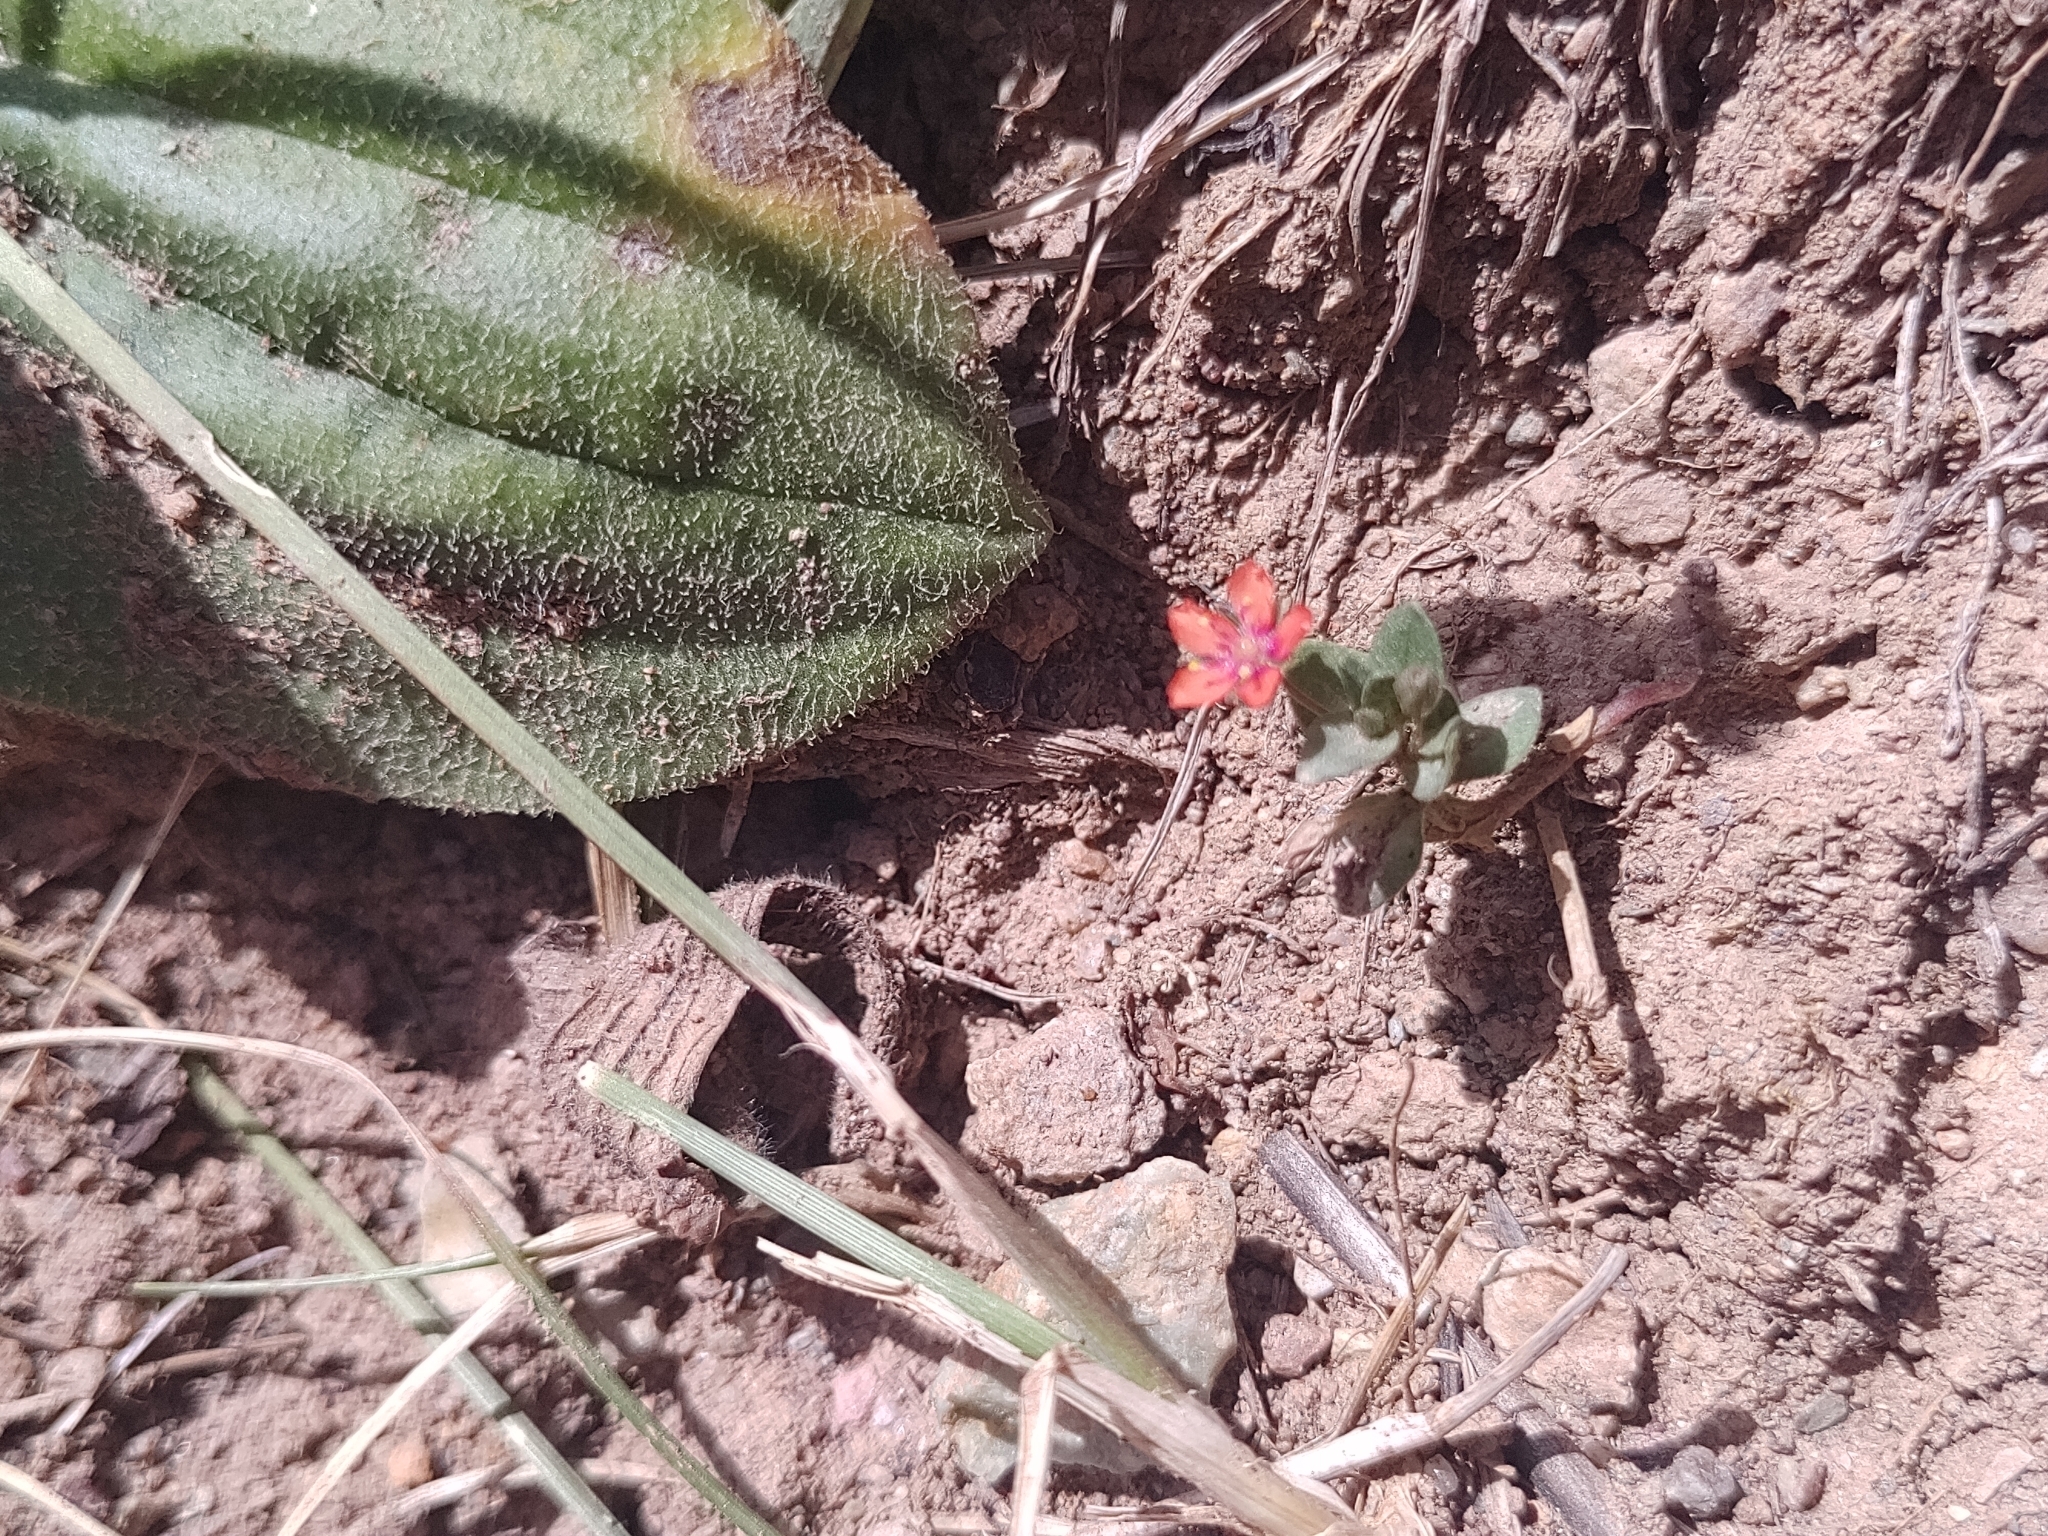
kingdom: Plantae
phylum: Tracheophyta
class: Magnoliopsida
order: Ericales
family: Primulaceae
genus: Lysimachia
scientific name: Lysimachia arvensis
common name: Scarlet pimpernel
